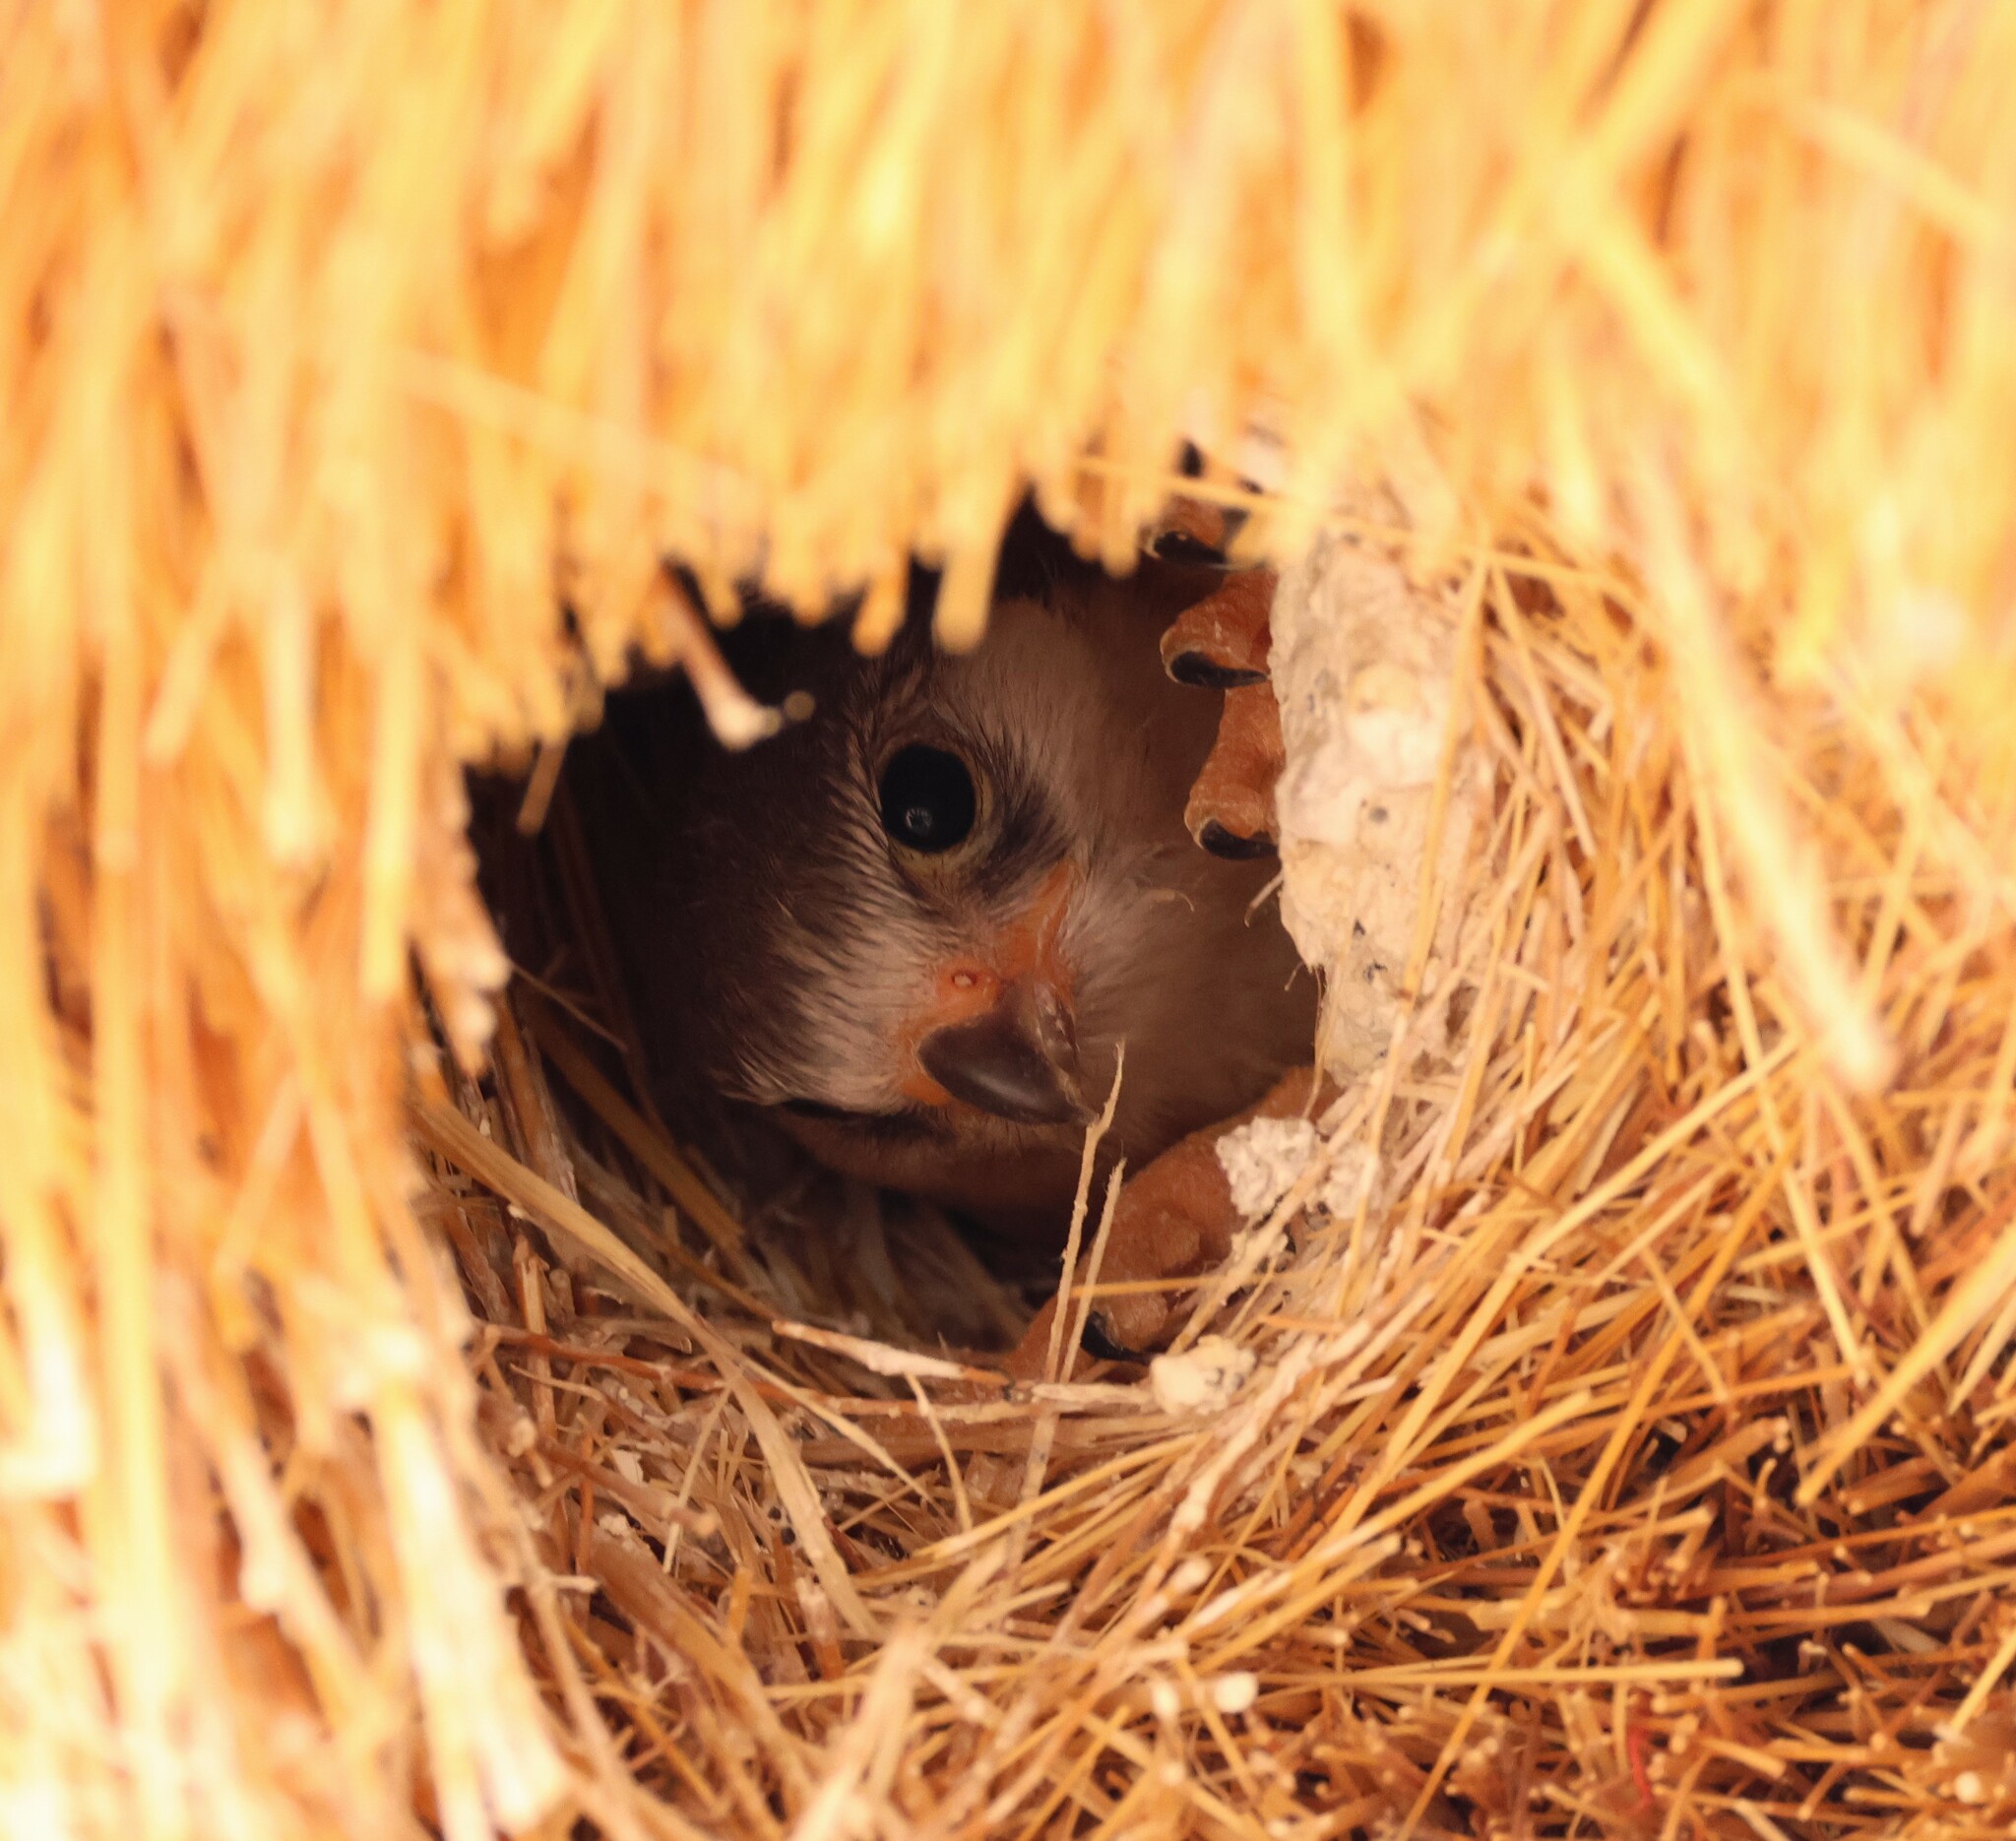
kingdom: Animalia
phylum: Chordata
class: Aves
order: Falconiformes
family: Falconidae
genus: Polihierax
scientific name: Polihierax semitorquatus
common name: Pygmy falcon
